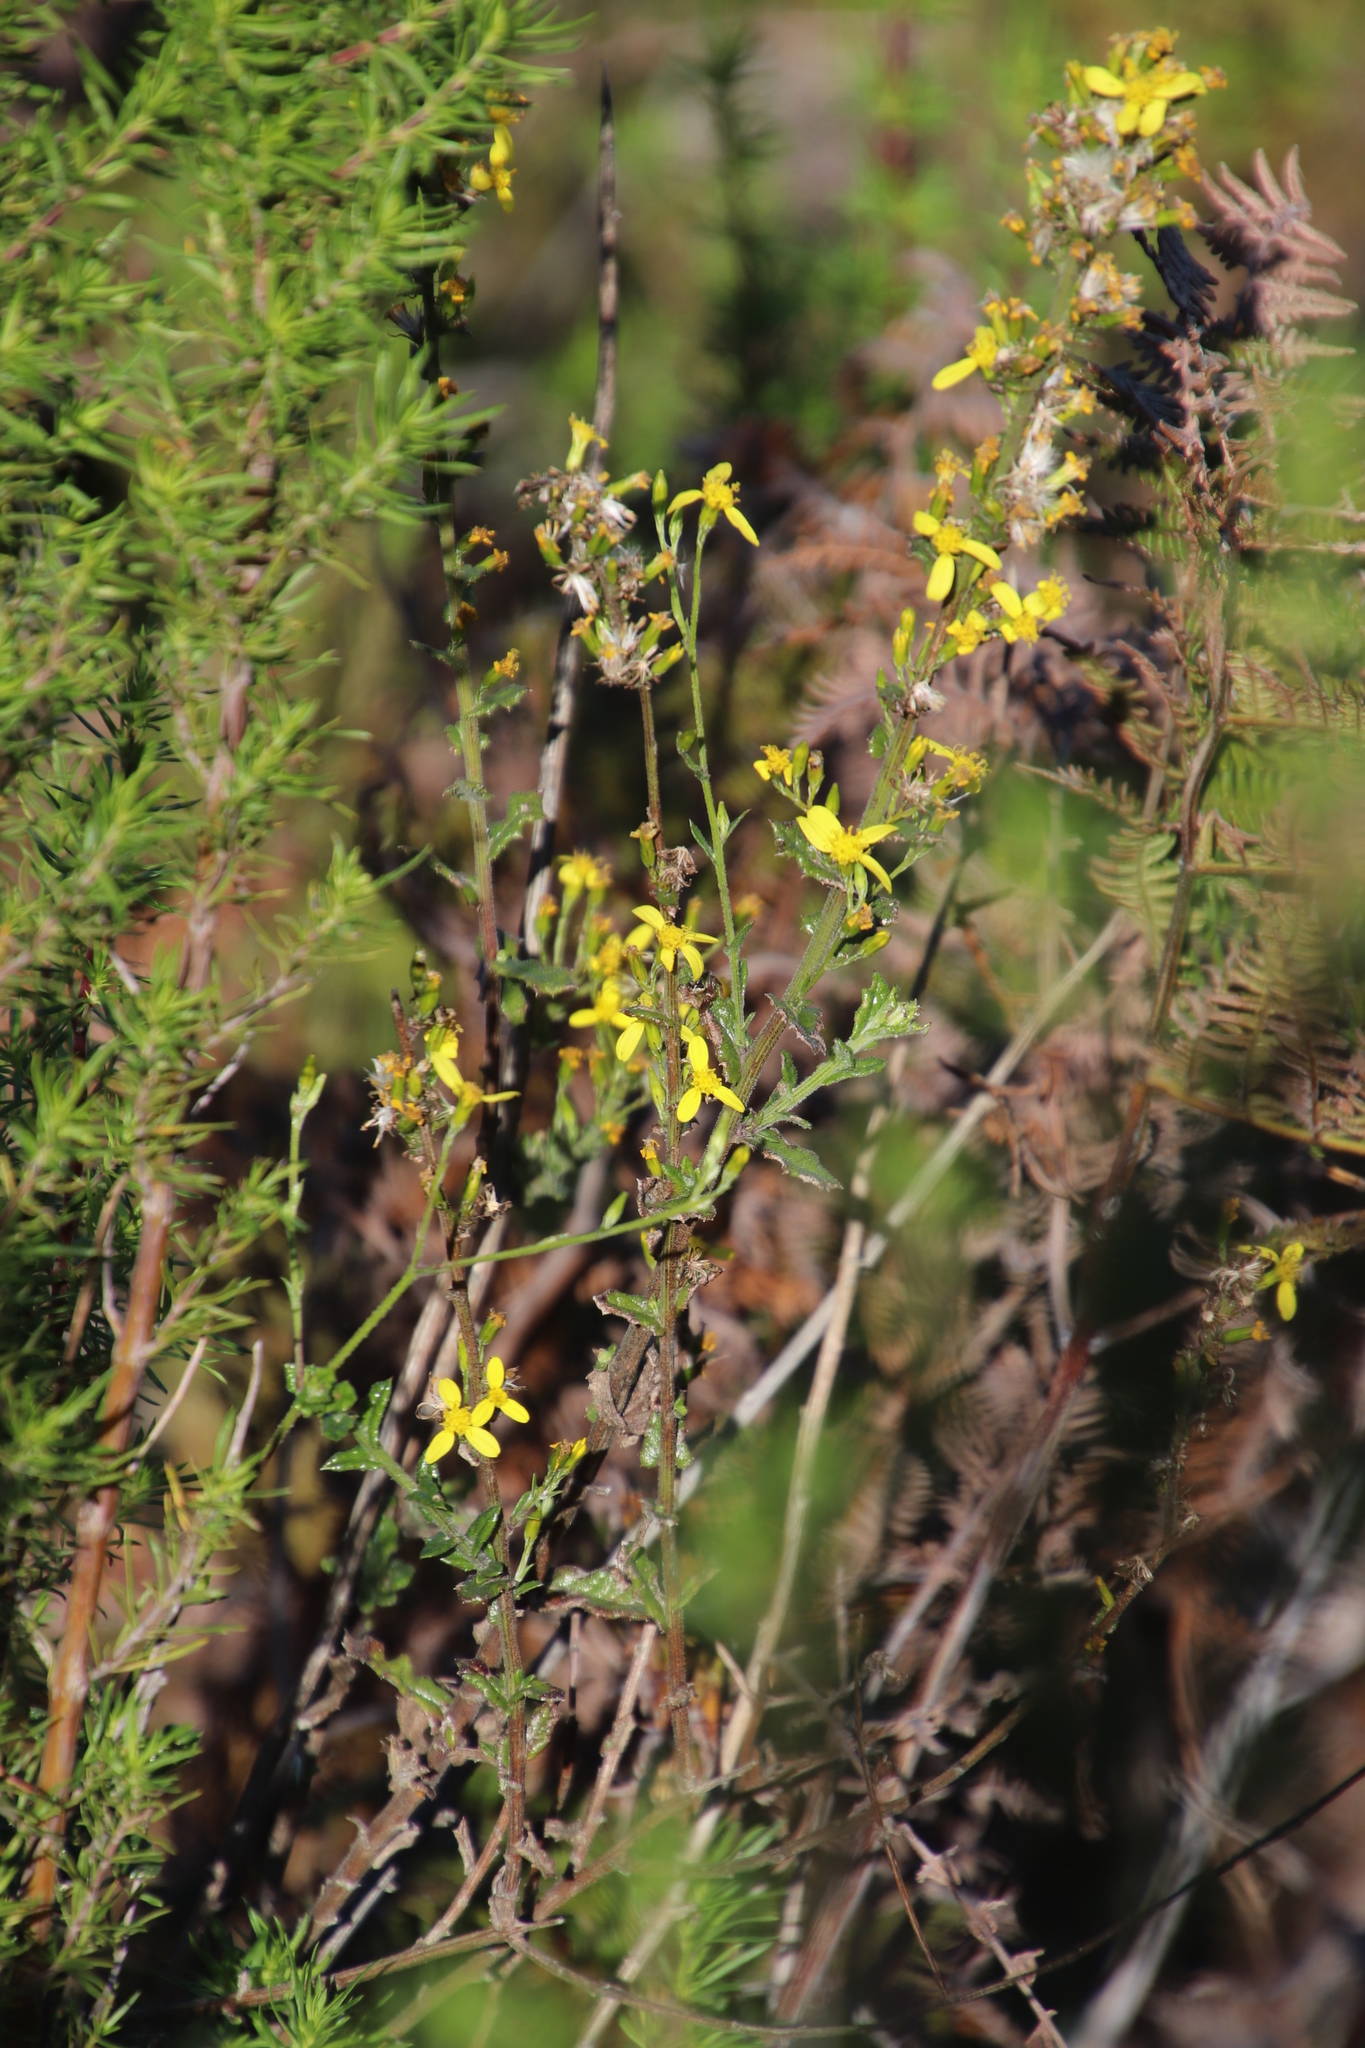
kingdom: Plantae
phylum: Tracheophyta
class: Magnoliopsida
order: Asterales
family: Asteraceae
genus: Senecio
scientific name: Senecio pubigerus
